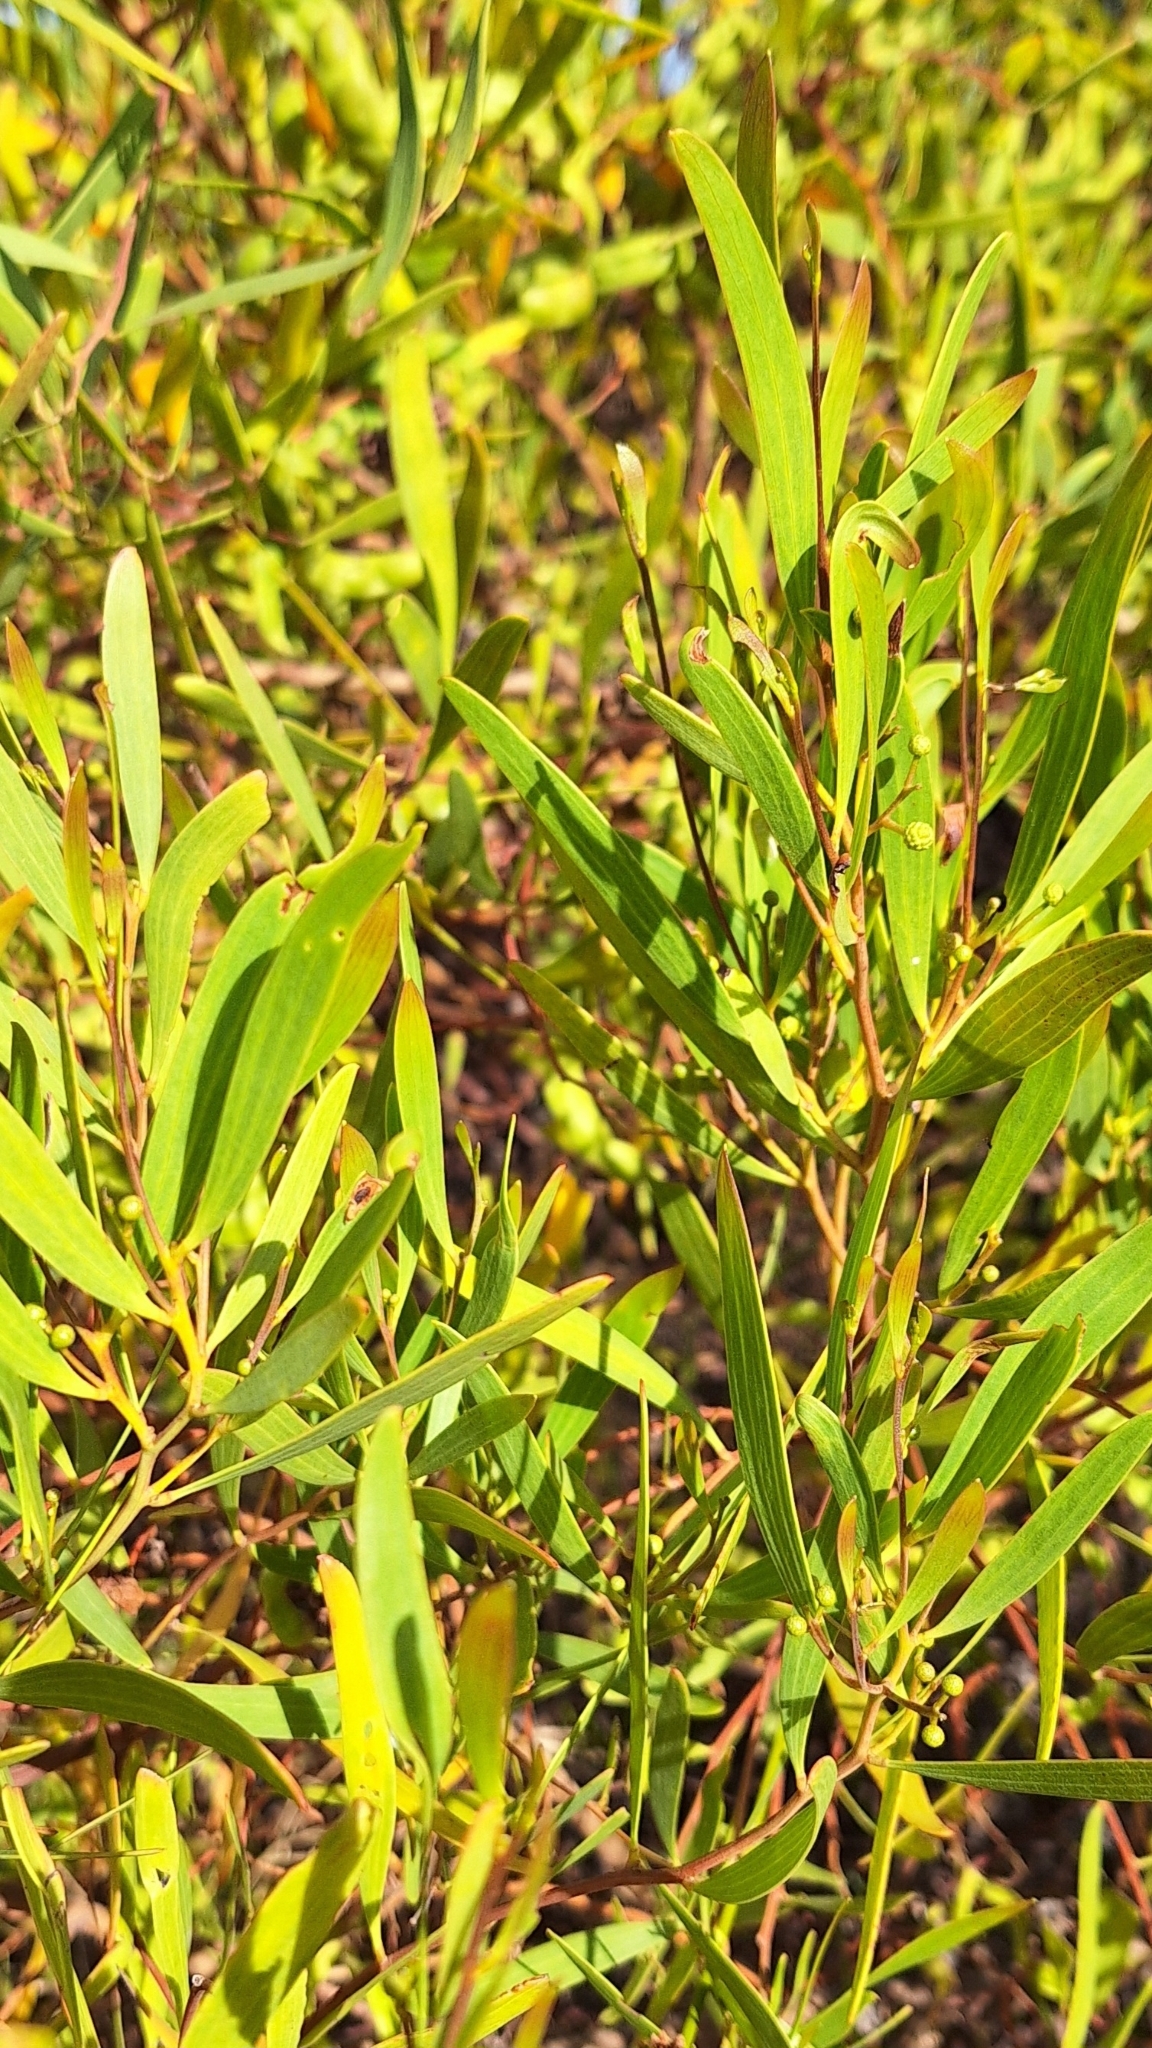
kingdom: Plantae
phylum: Tracheophyta
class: Magnoliopsida
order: Fabales
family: Fabaceae
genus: Acacia
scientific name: Acacia cyclops
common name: Coastal wattle
